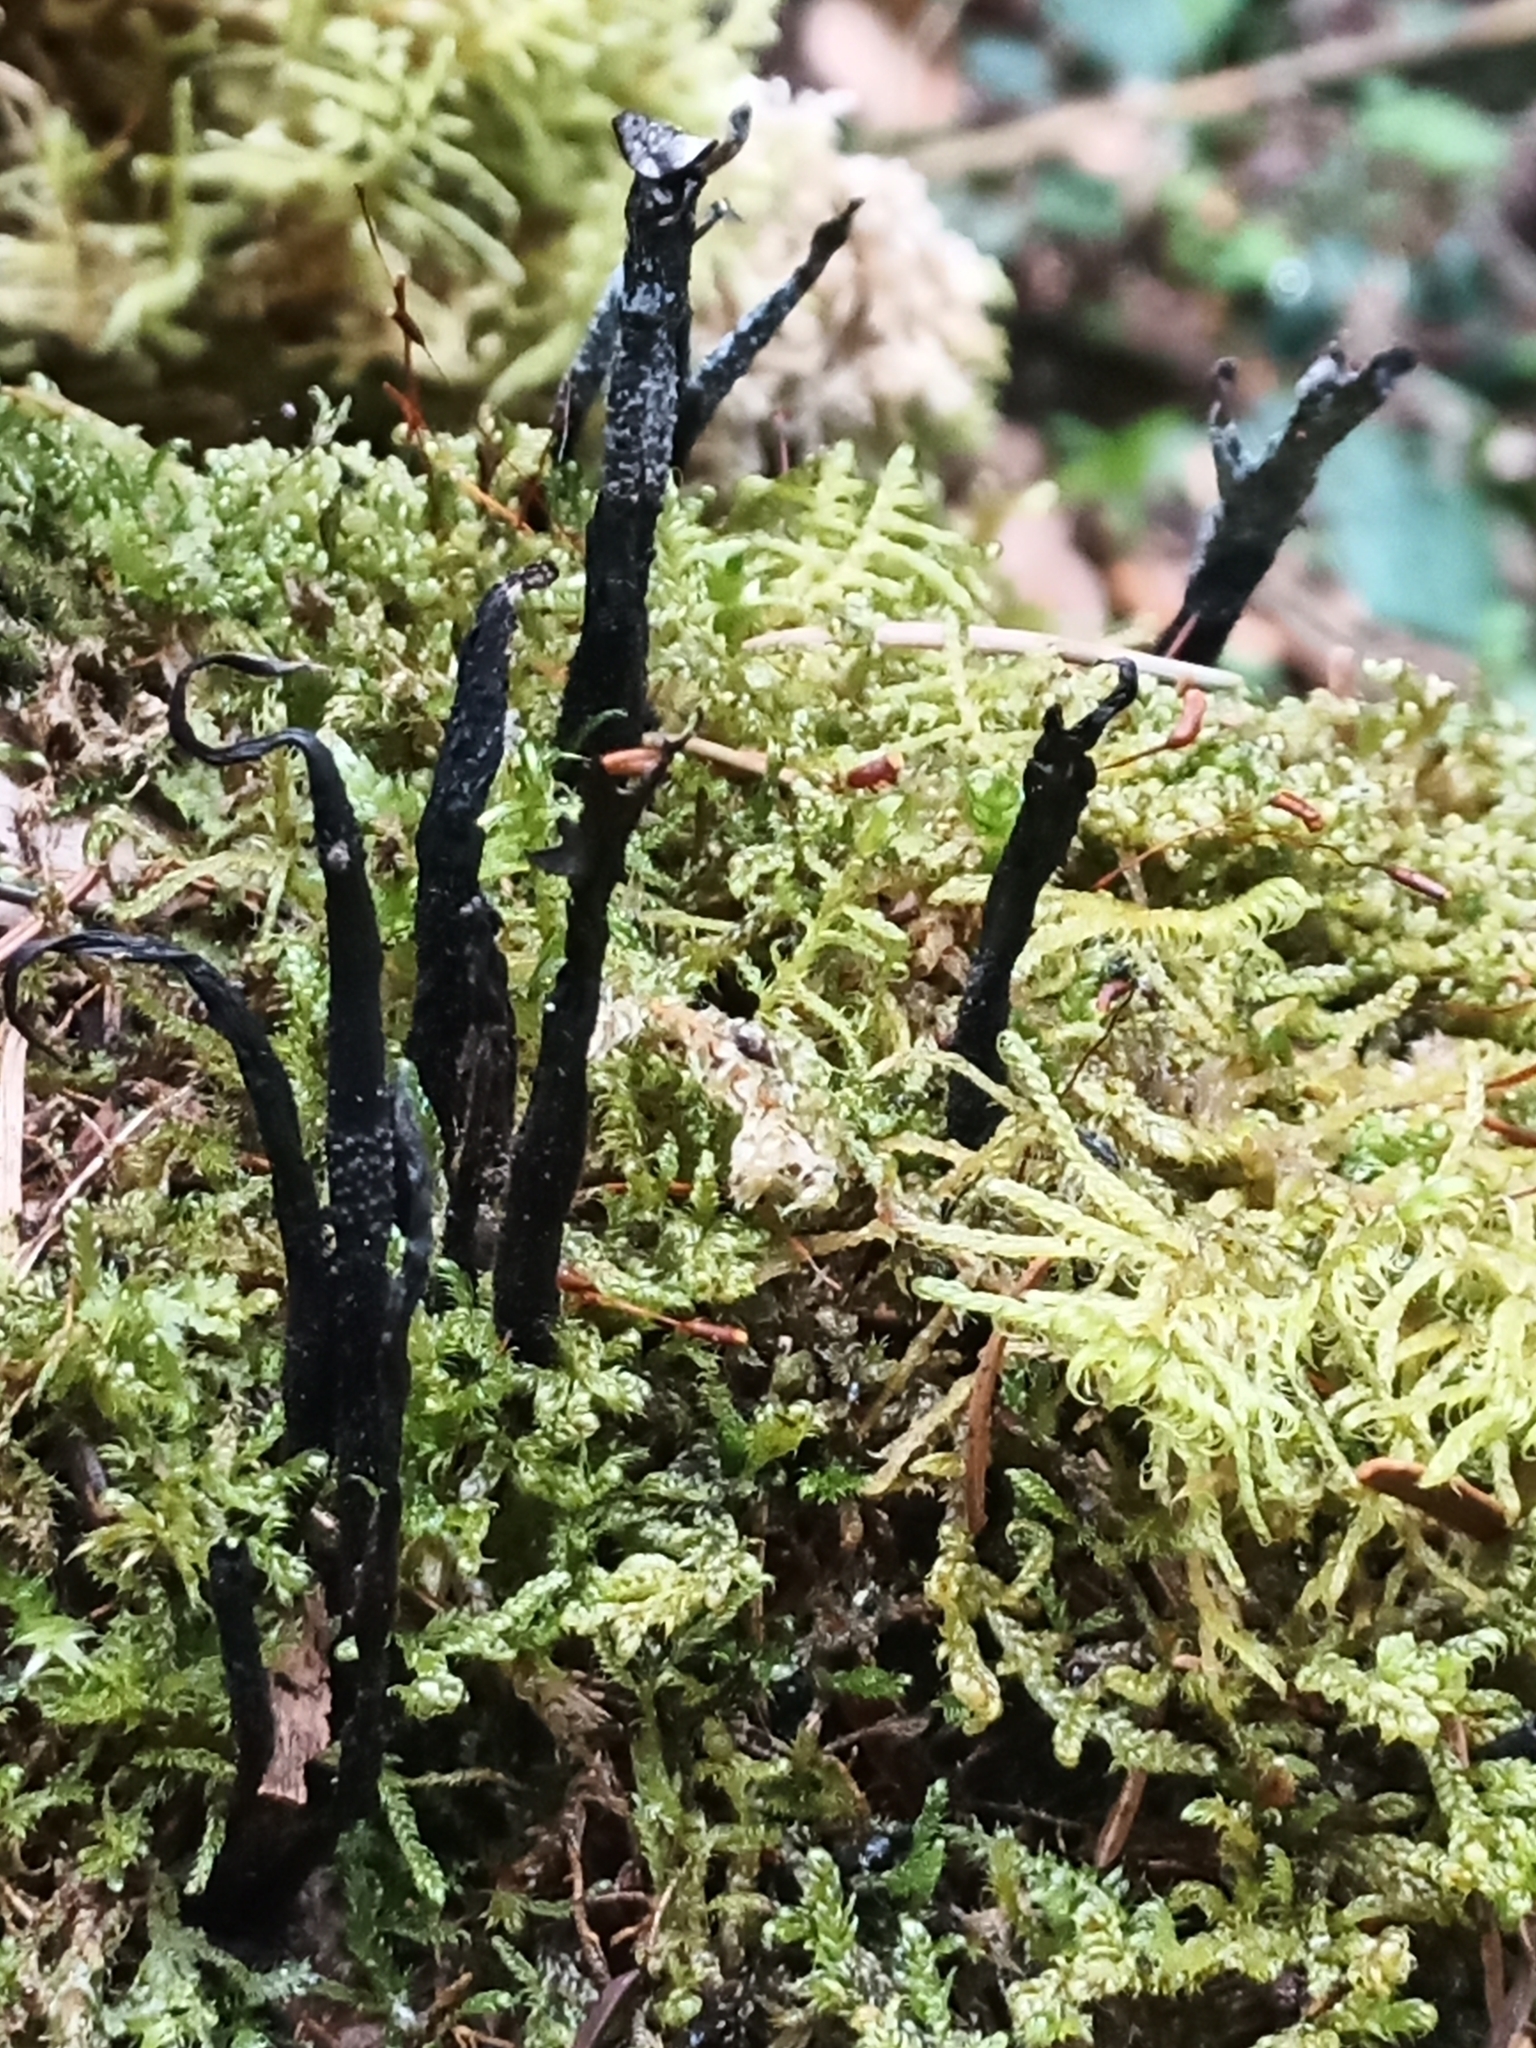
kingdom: Fungi
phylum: Ascomycota
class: Sordariomycetes
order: Xylariales
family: Xylariaceae
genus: Xylaria
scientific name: Xylaria hypoxylon
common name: Candle-snuff fungus
